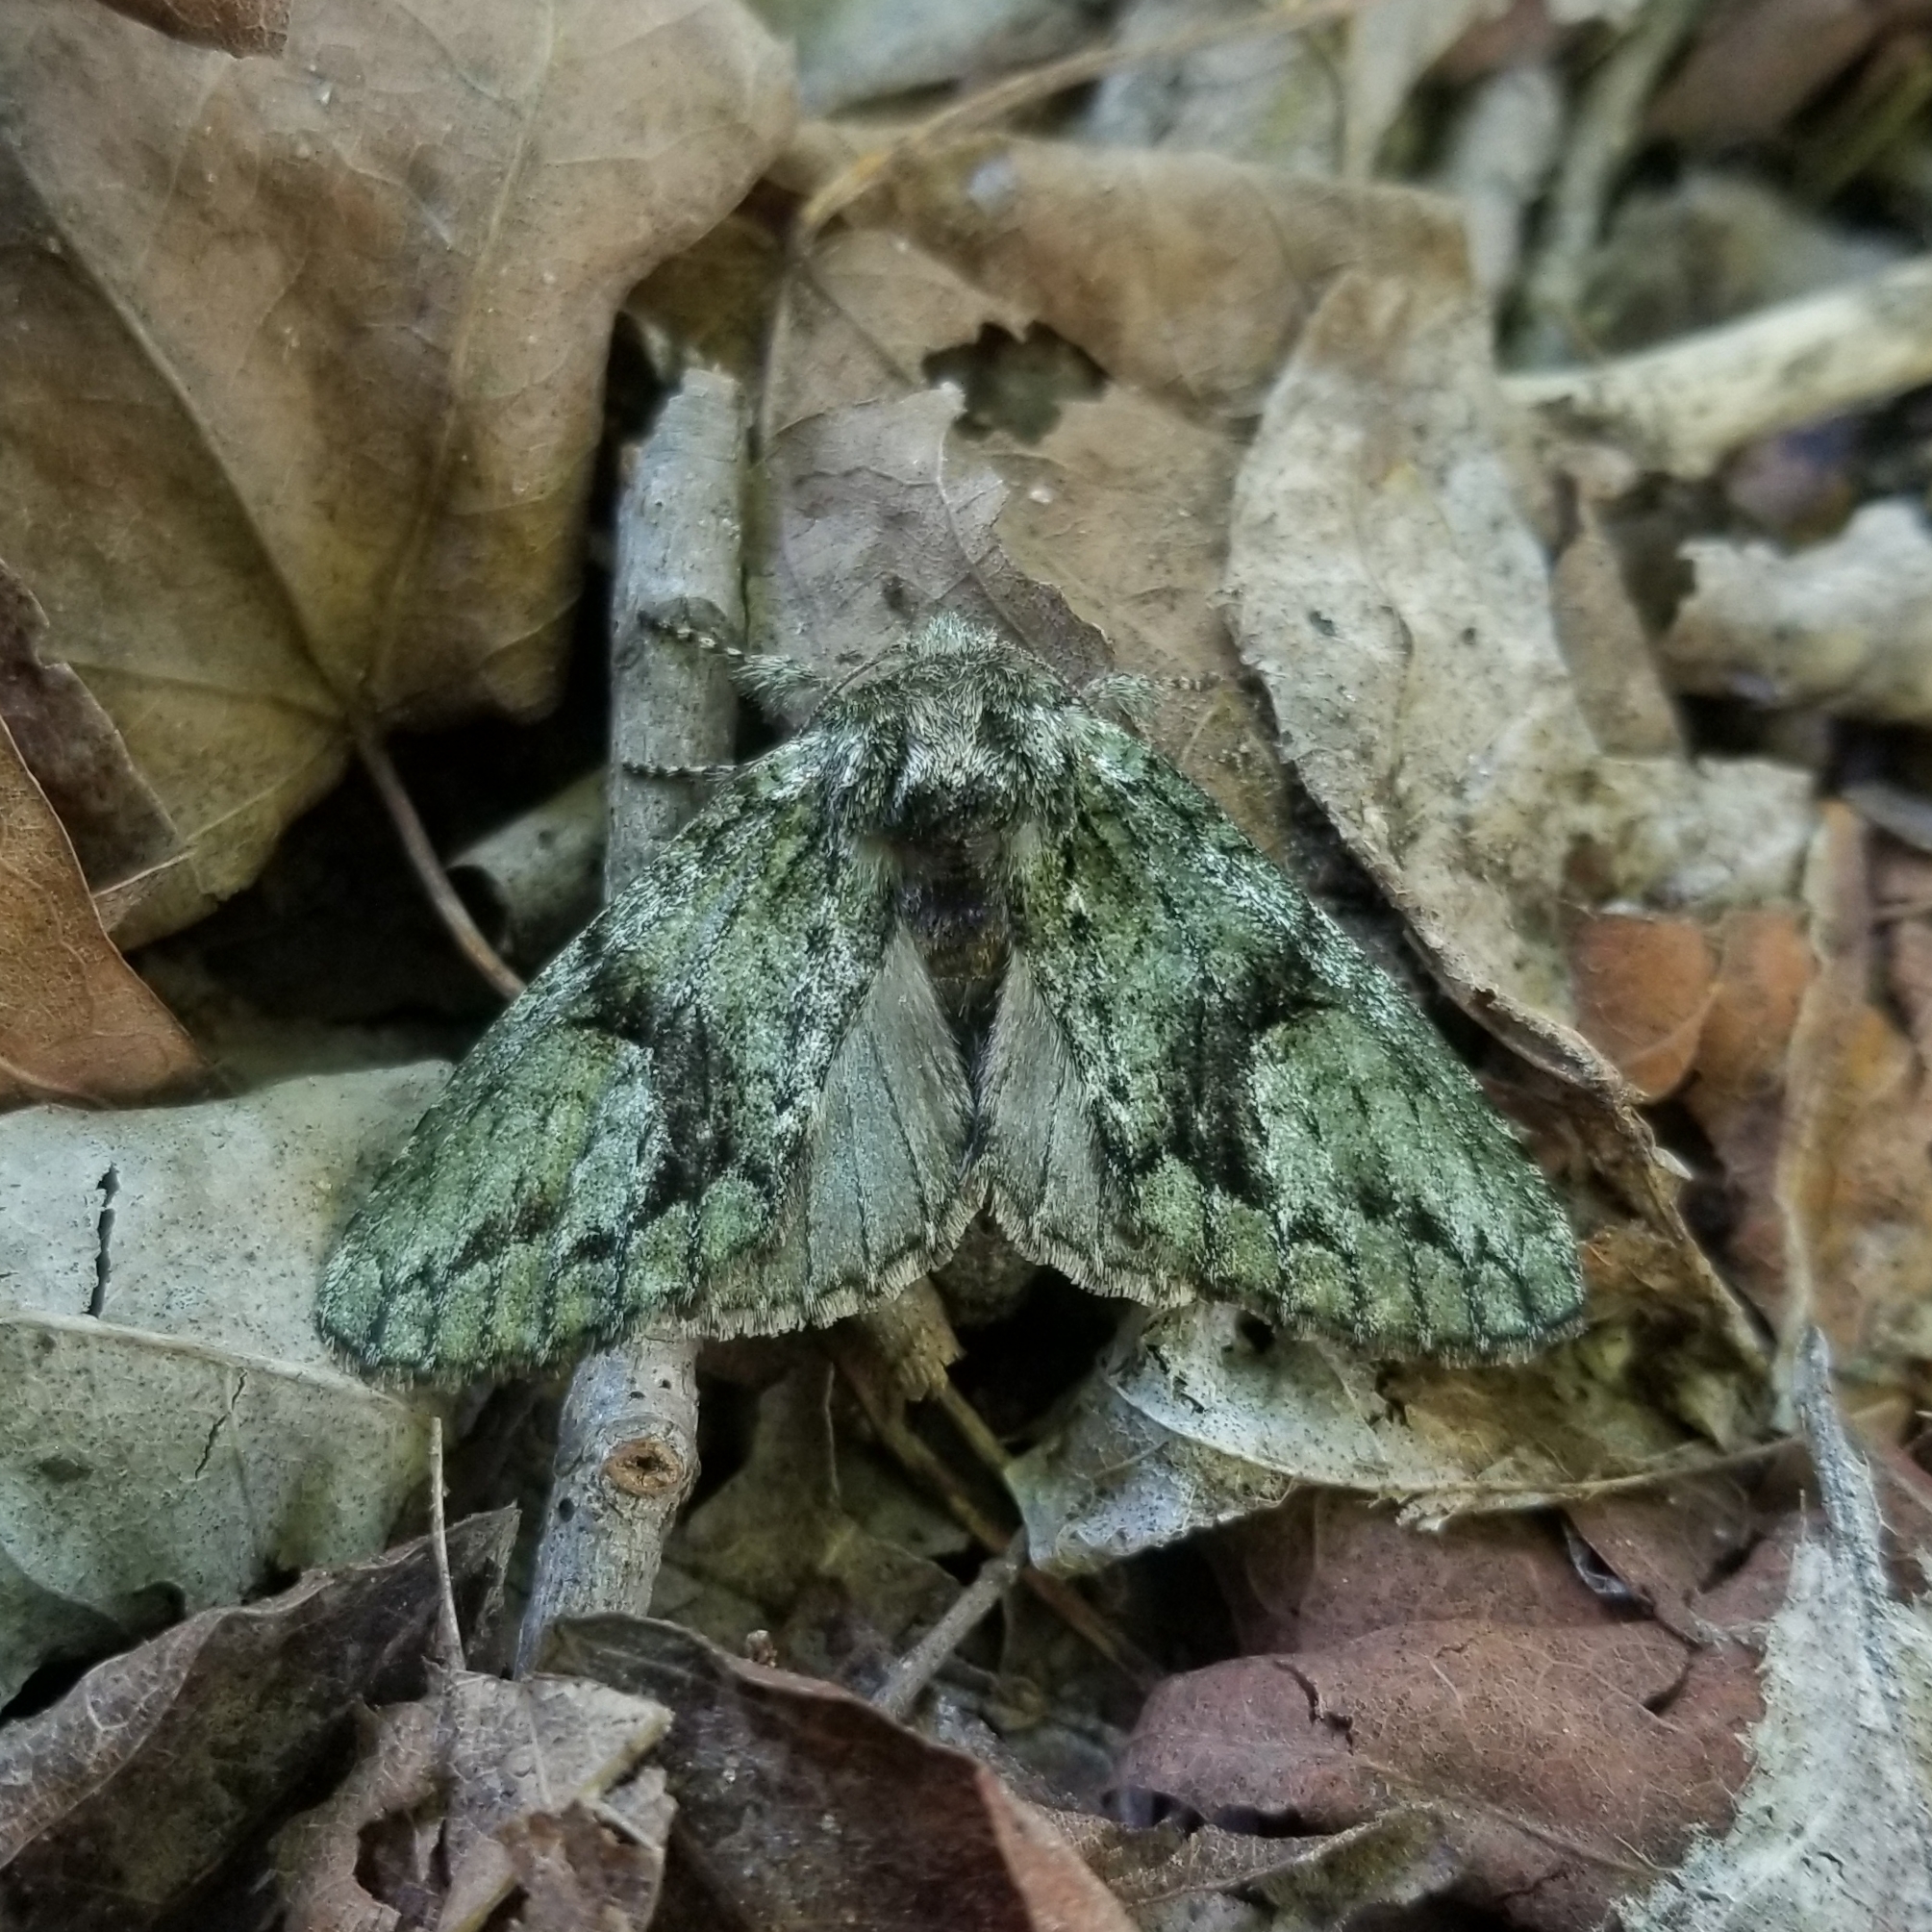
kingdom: Animalia
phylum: Arthropoda
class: Insecta
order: Lepidoptera
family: Notodontidae
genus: Heterocampa
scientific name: Heterocampa
